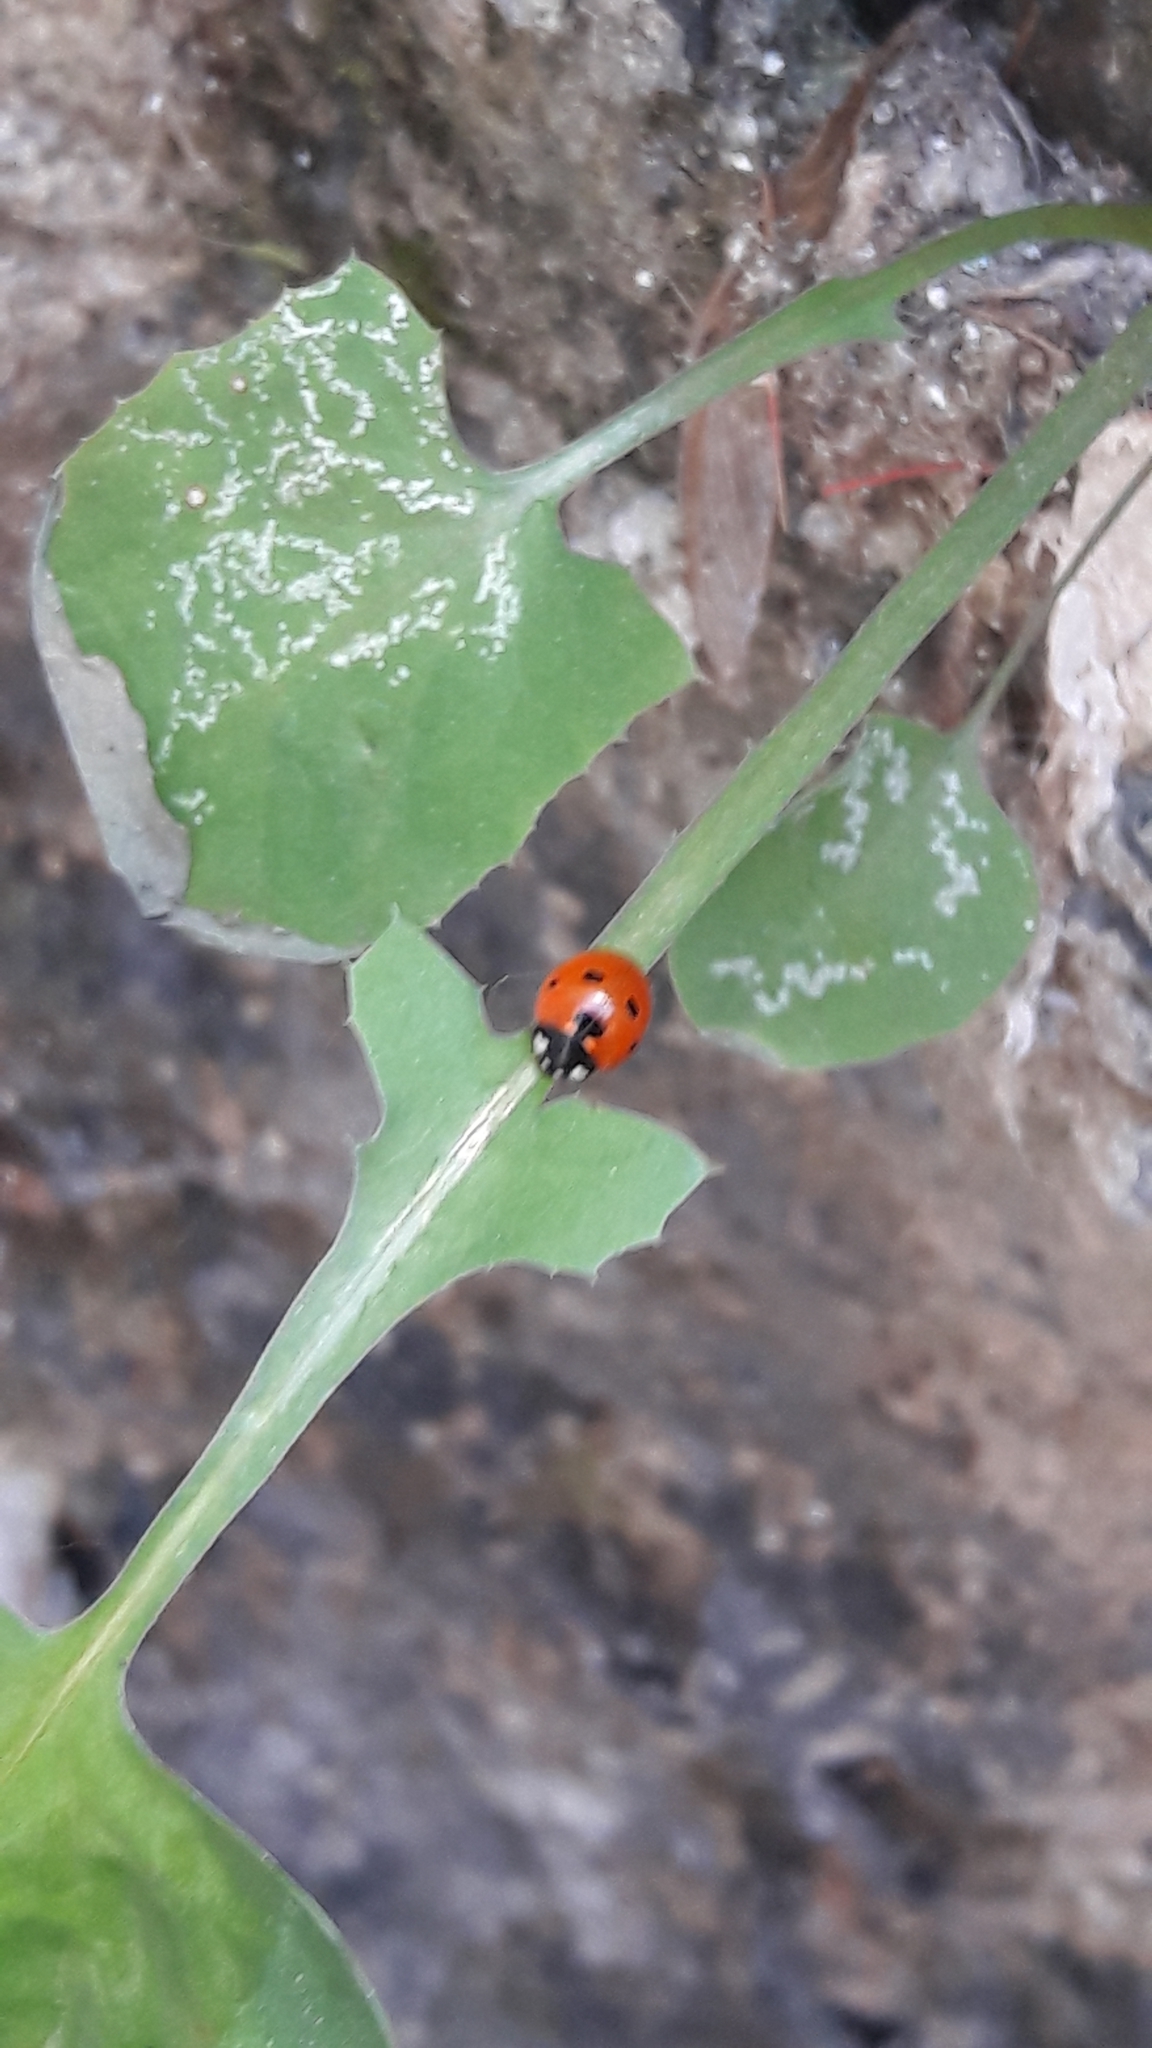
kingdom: Animalia
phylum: Arthropoda
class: Insecta
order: Coleoptera
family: Coccinellidae
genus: Coccinella
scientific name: Coccinella septempunctata
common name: Sevenspotted lady beetle
